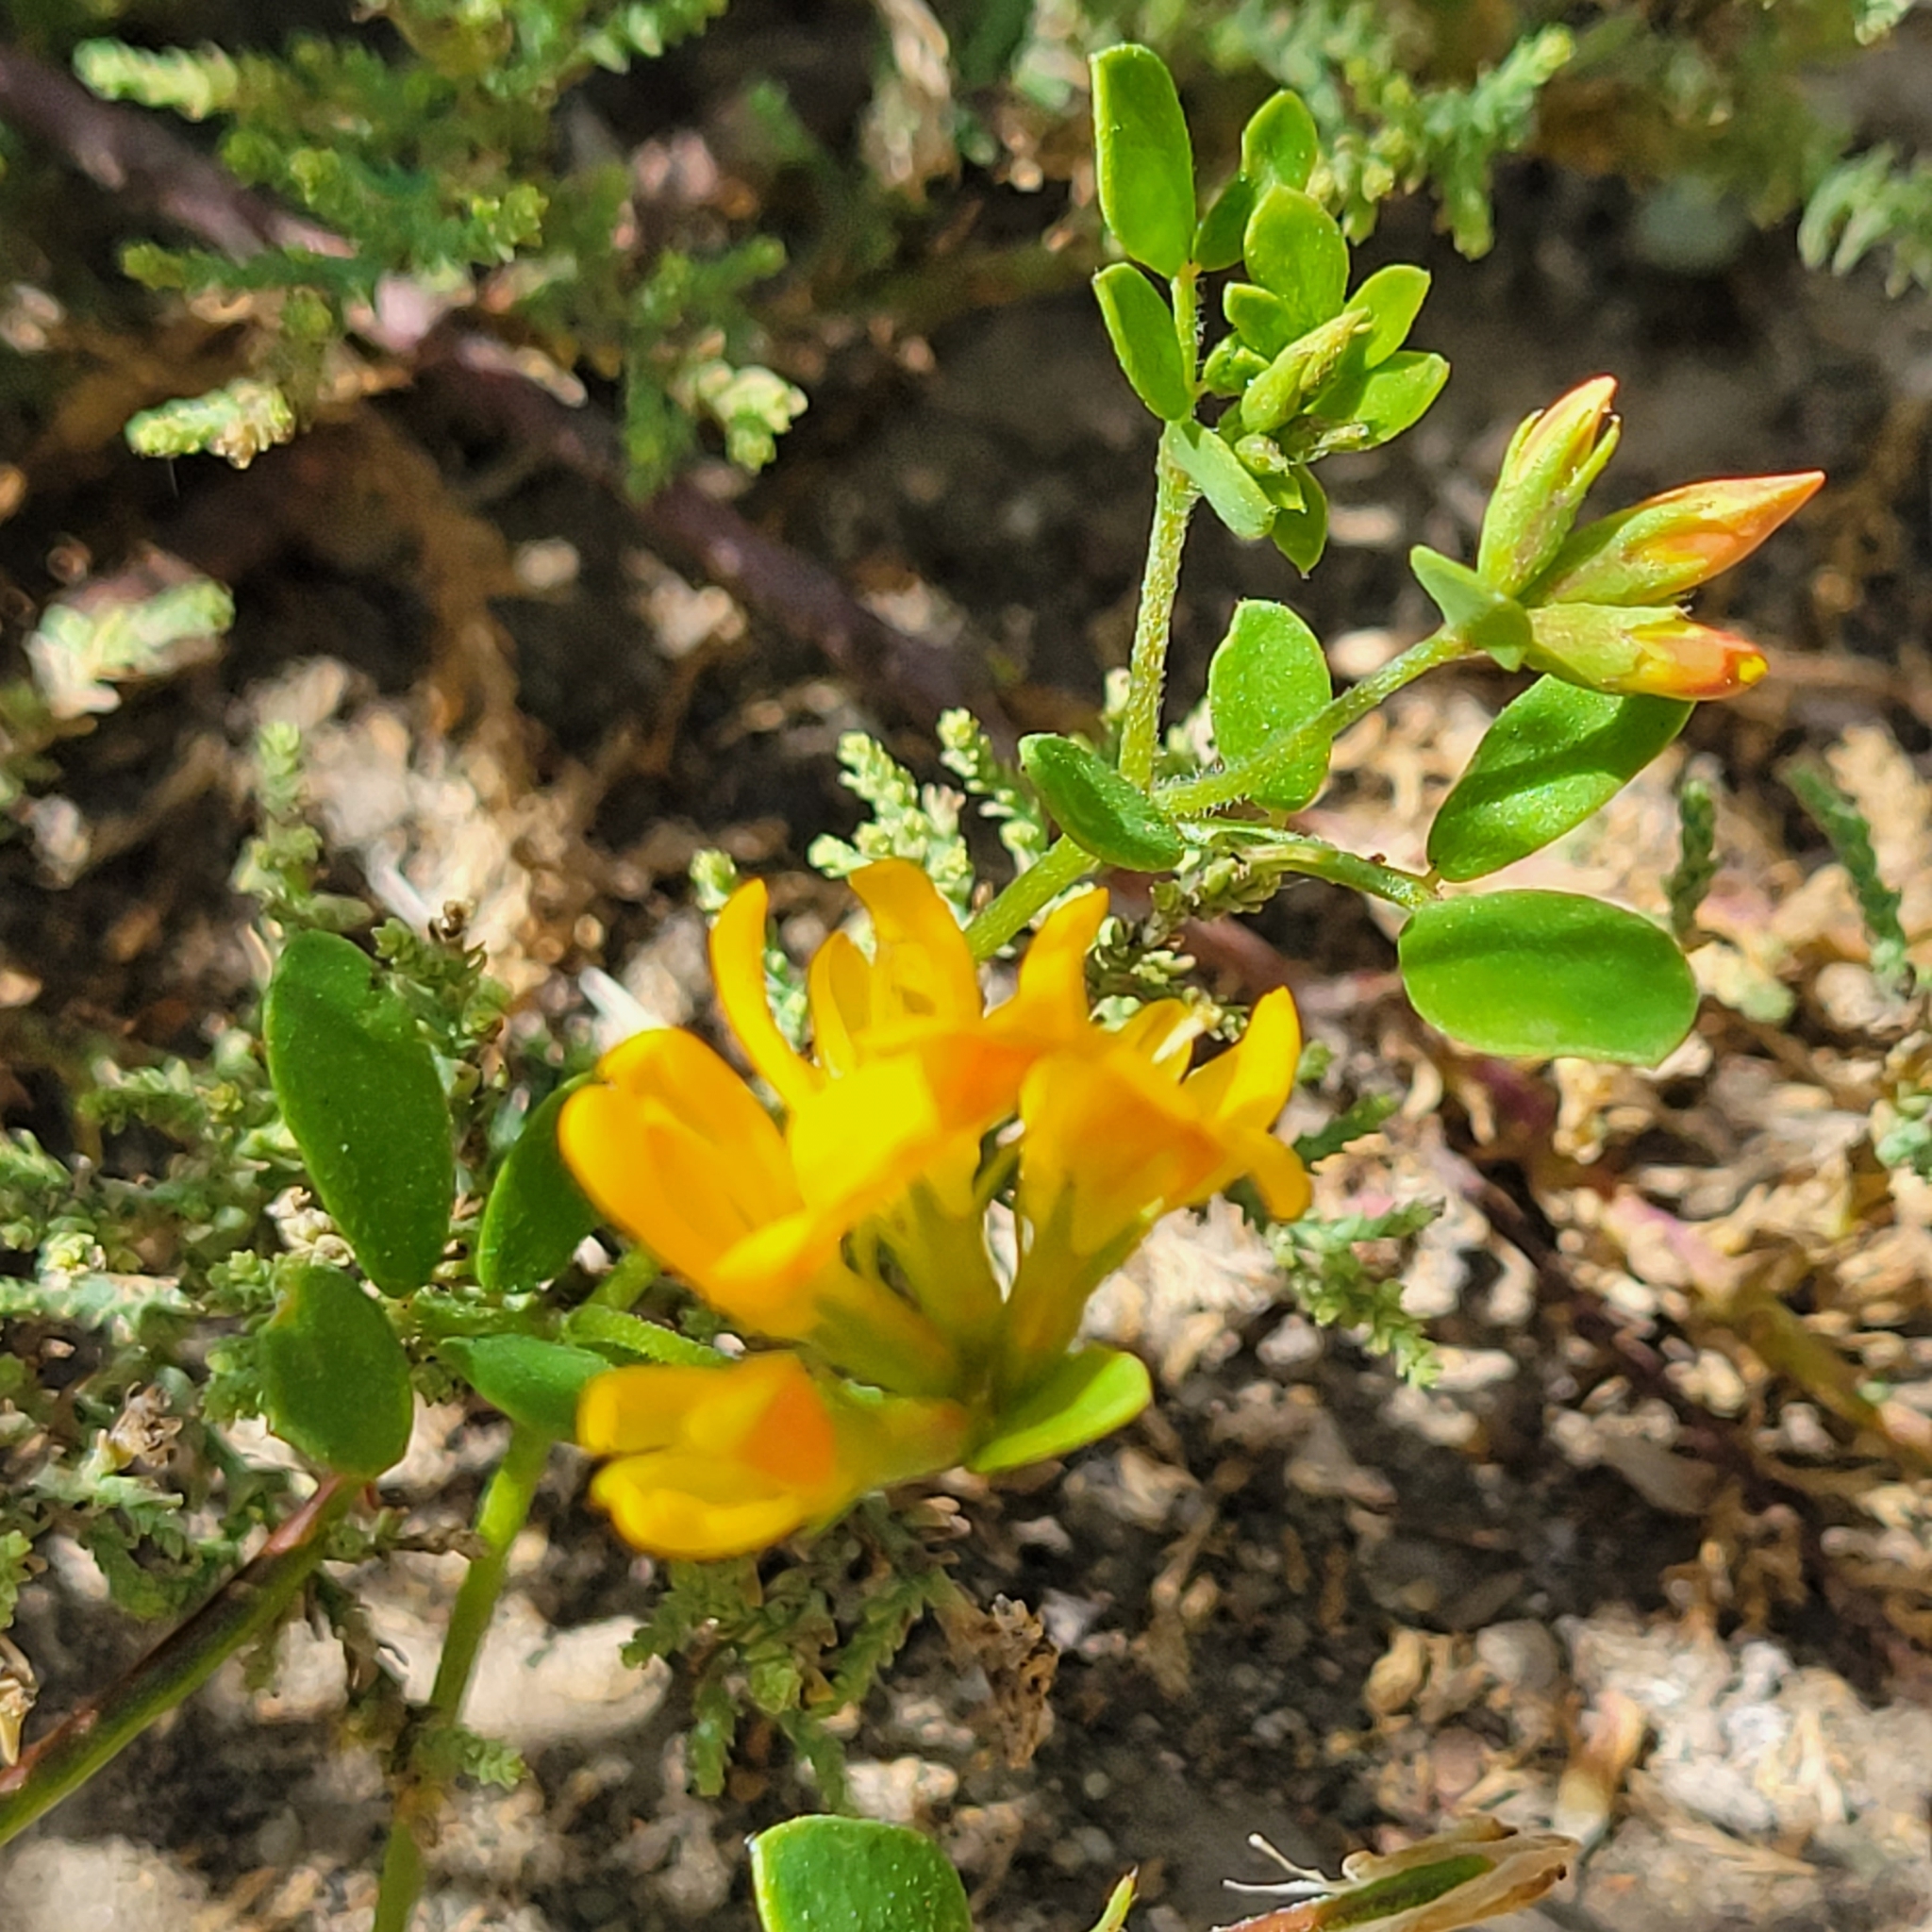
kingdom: Plantae
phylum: Tracheophyta
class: Magnoliopsida
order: Fabales
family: Fabaceae
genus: Acmispon
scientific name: Acmispon maritimus
